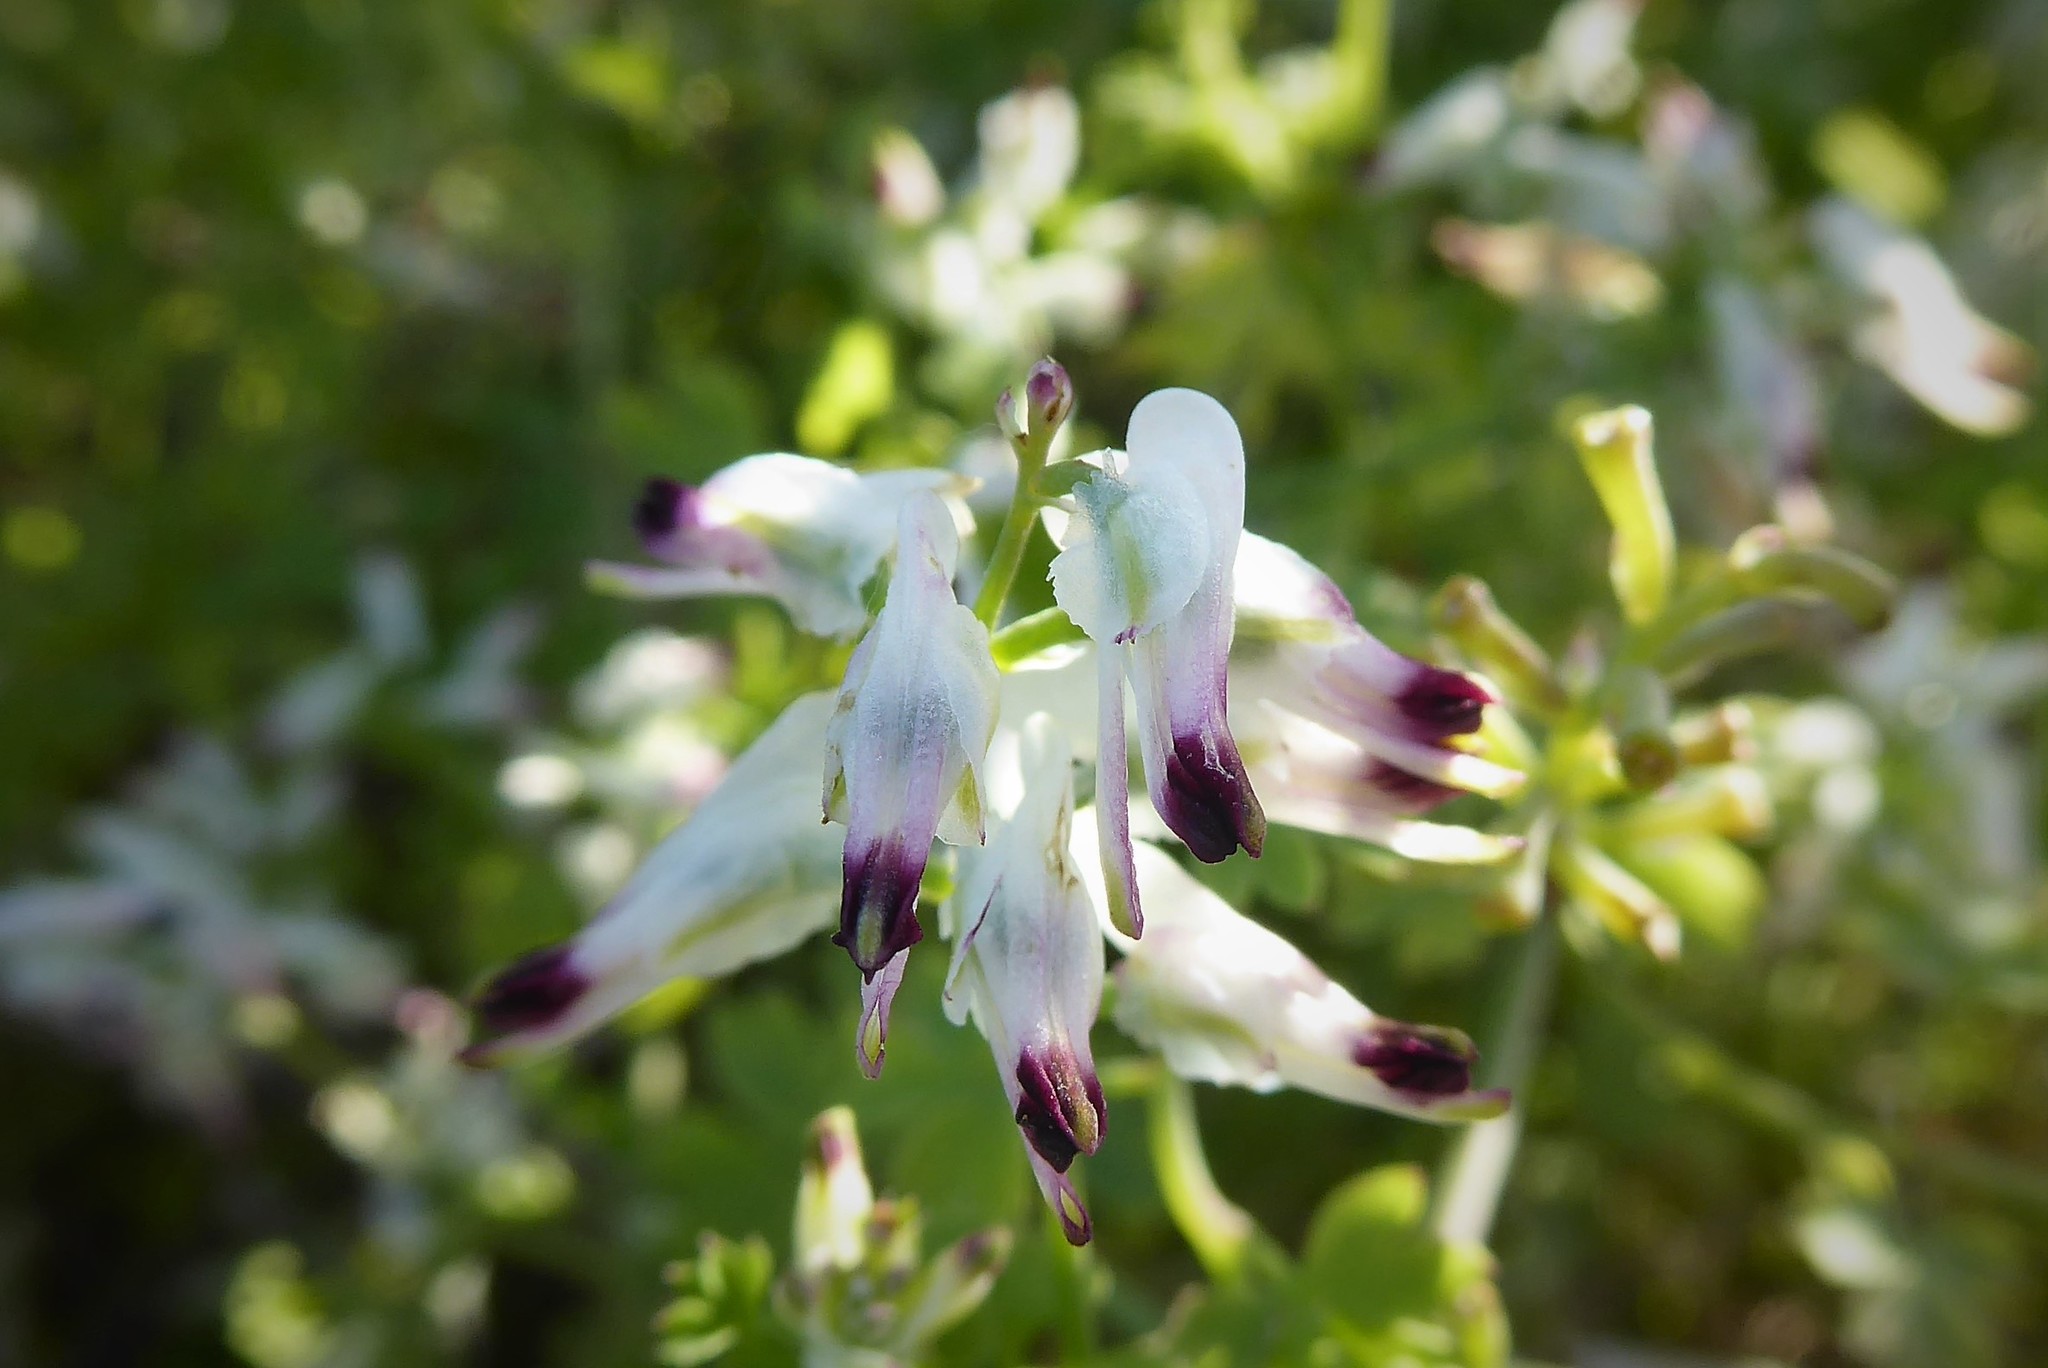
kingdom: Plantae
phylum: Tracheophyta
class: Magnoliopsida
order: Ranunculales
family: Papaveraceae
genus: Fumaria
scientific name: Fumaria capreolata
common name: White ramping-fumitory
